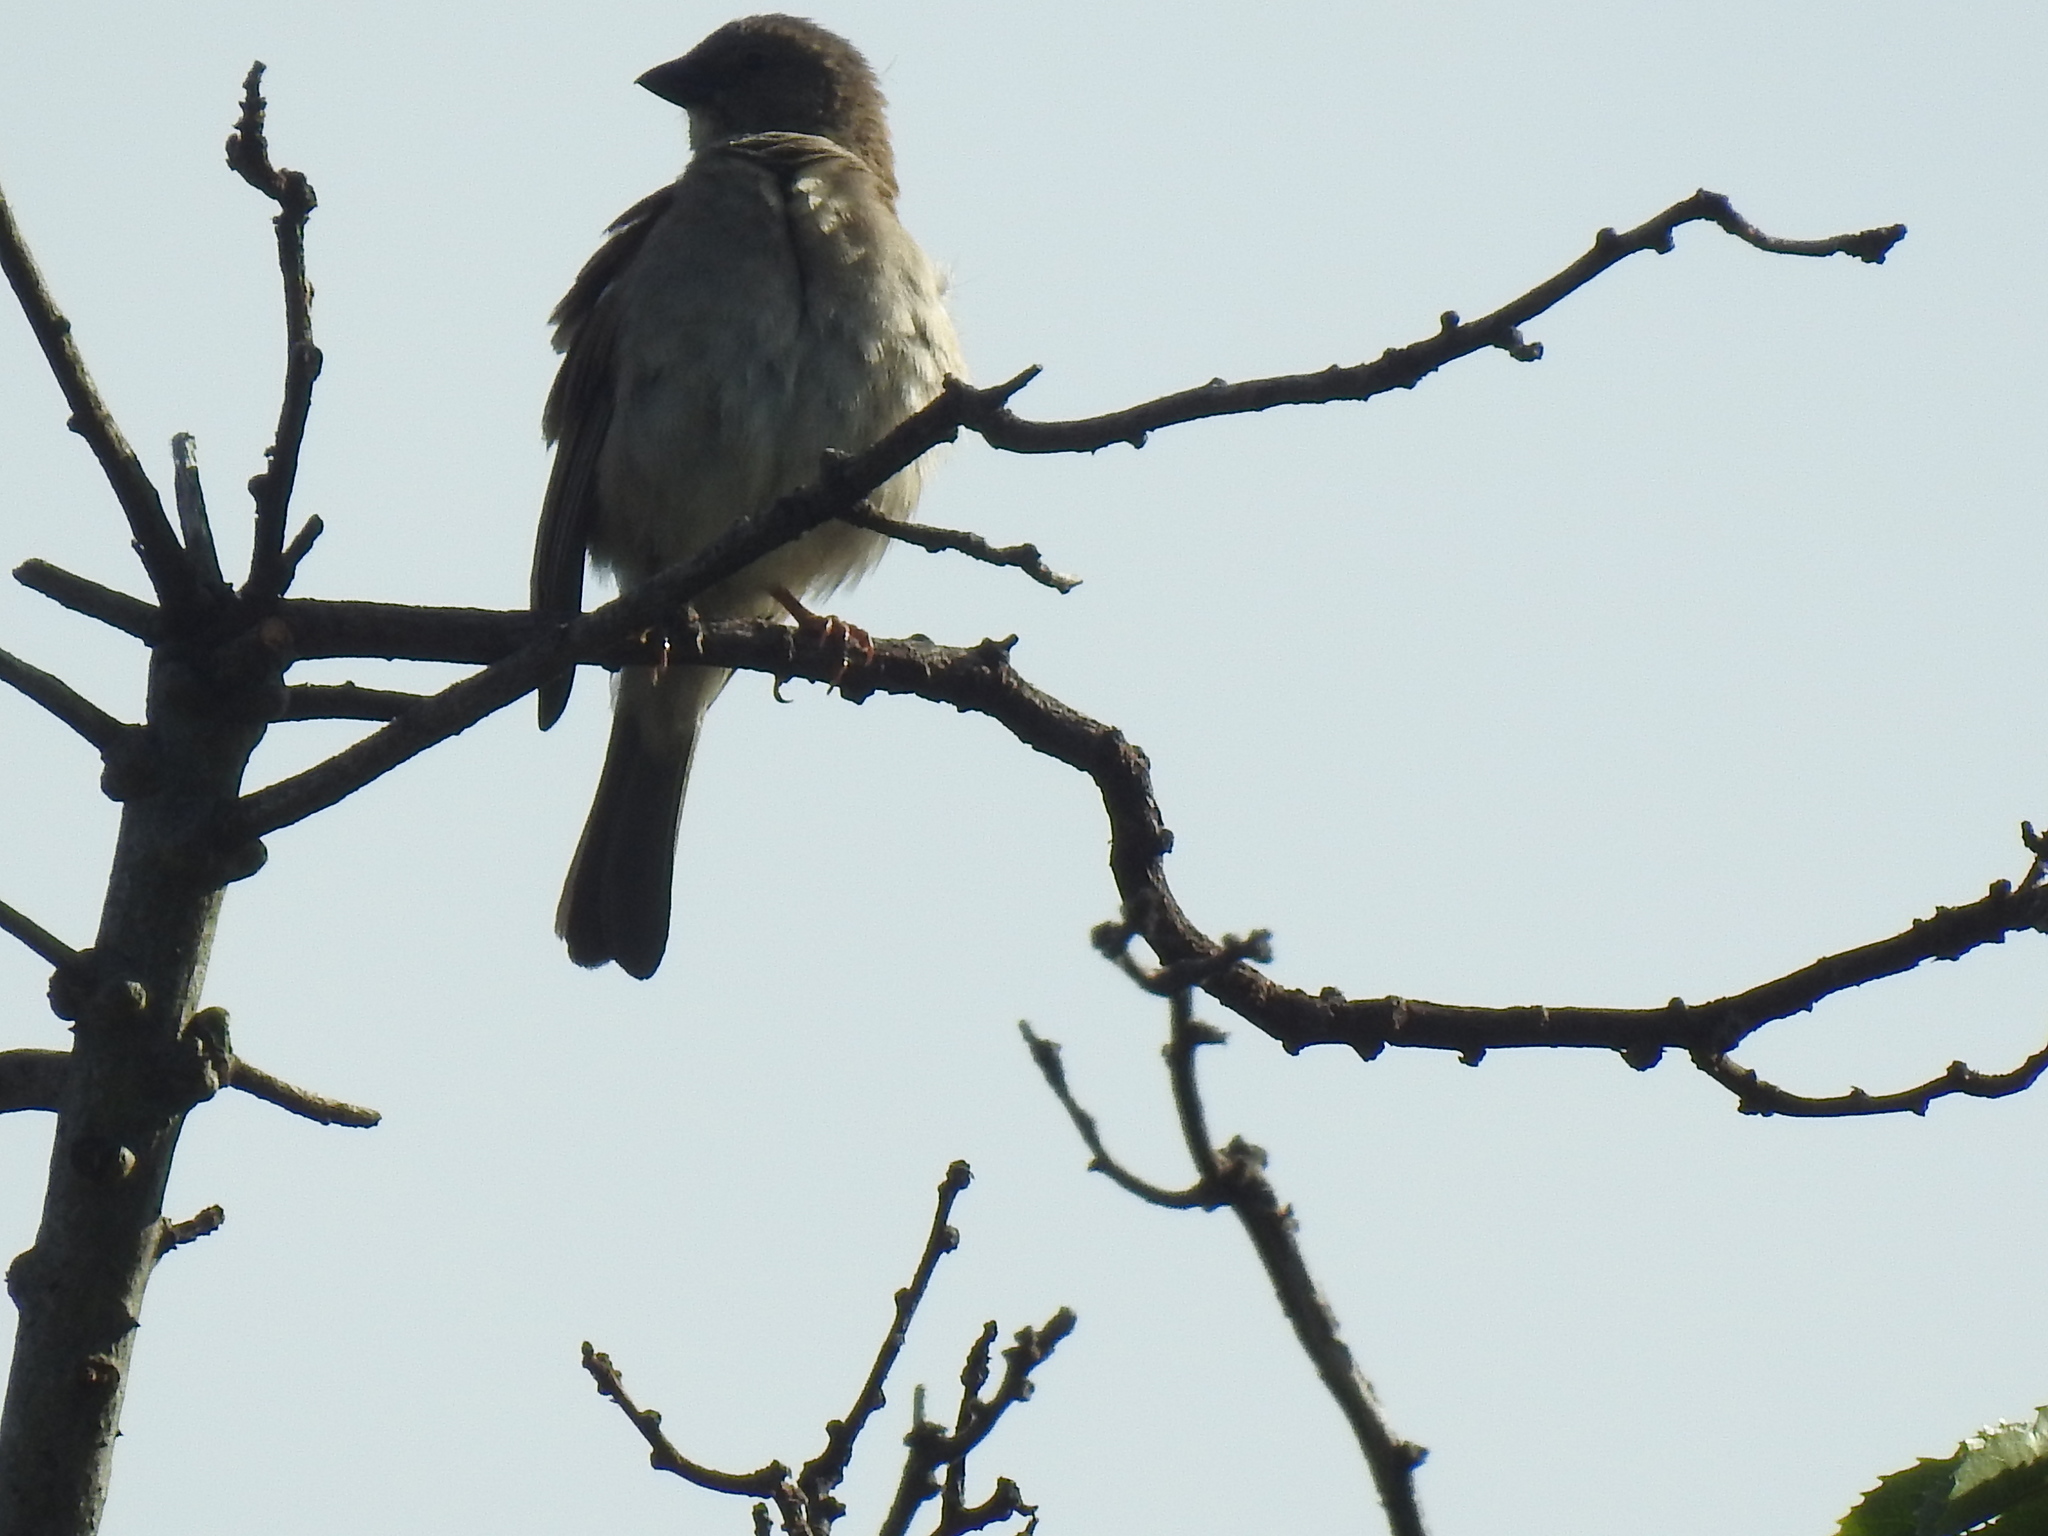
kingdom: Animalia
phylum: Chordata
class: Aves
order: Passeriformes
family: Passeridae
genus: Passer
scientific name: Passer diffusus
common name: Southern grey-headed sparrow
